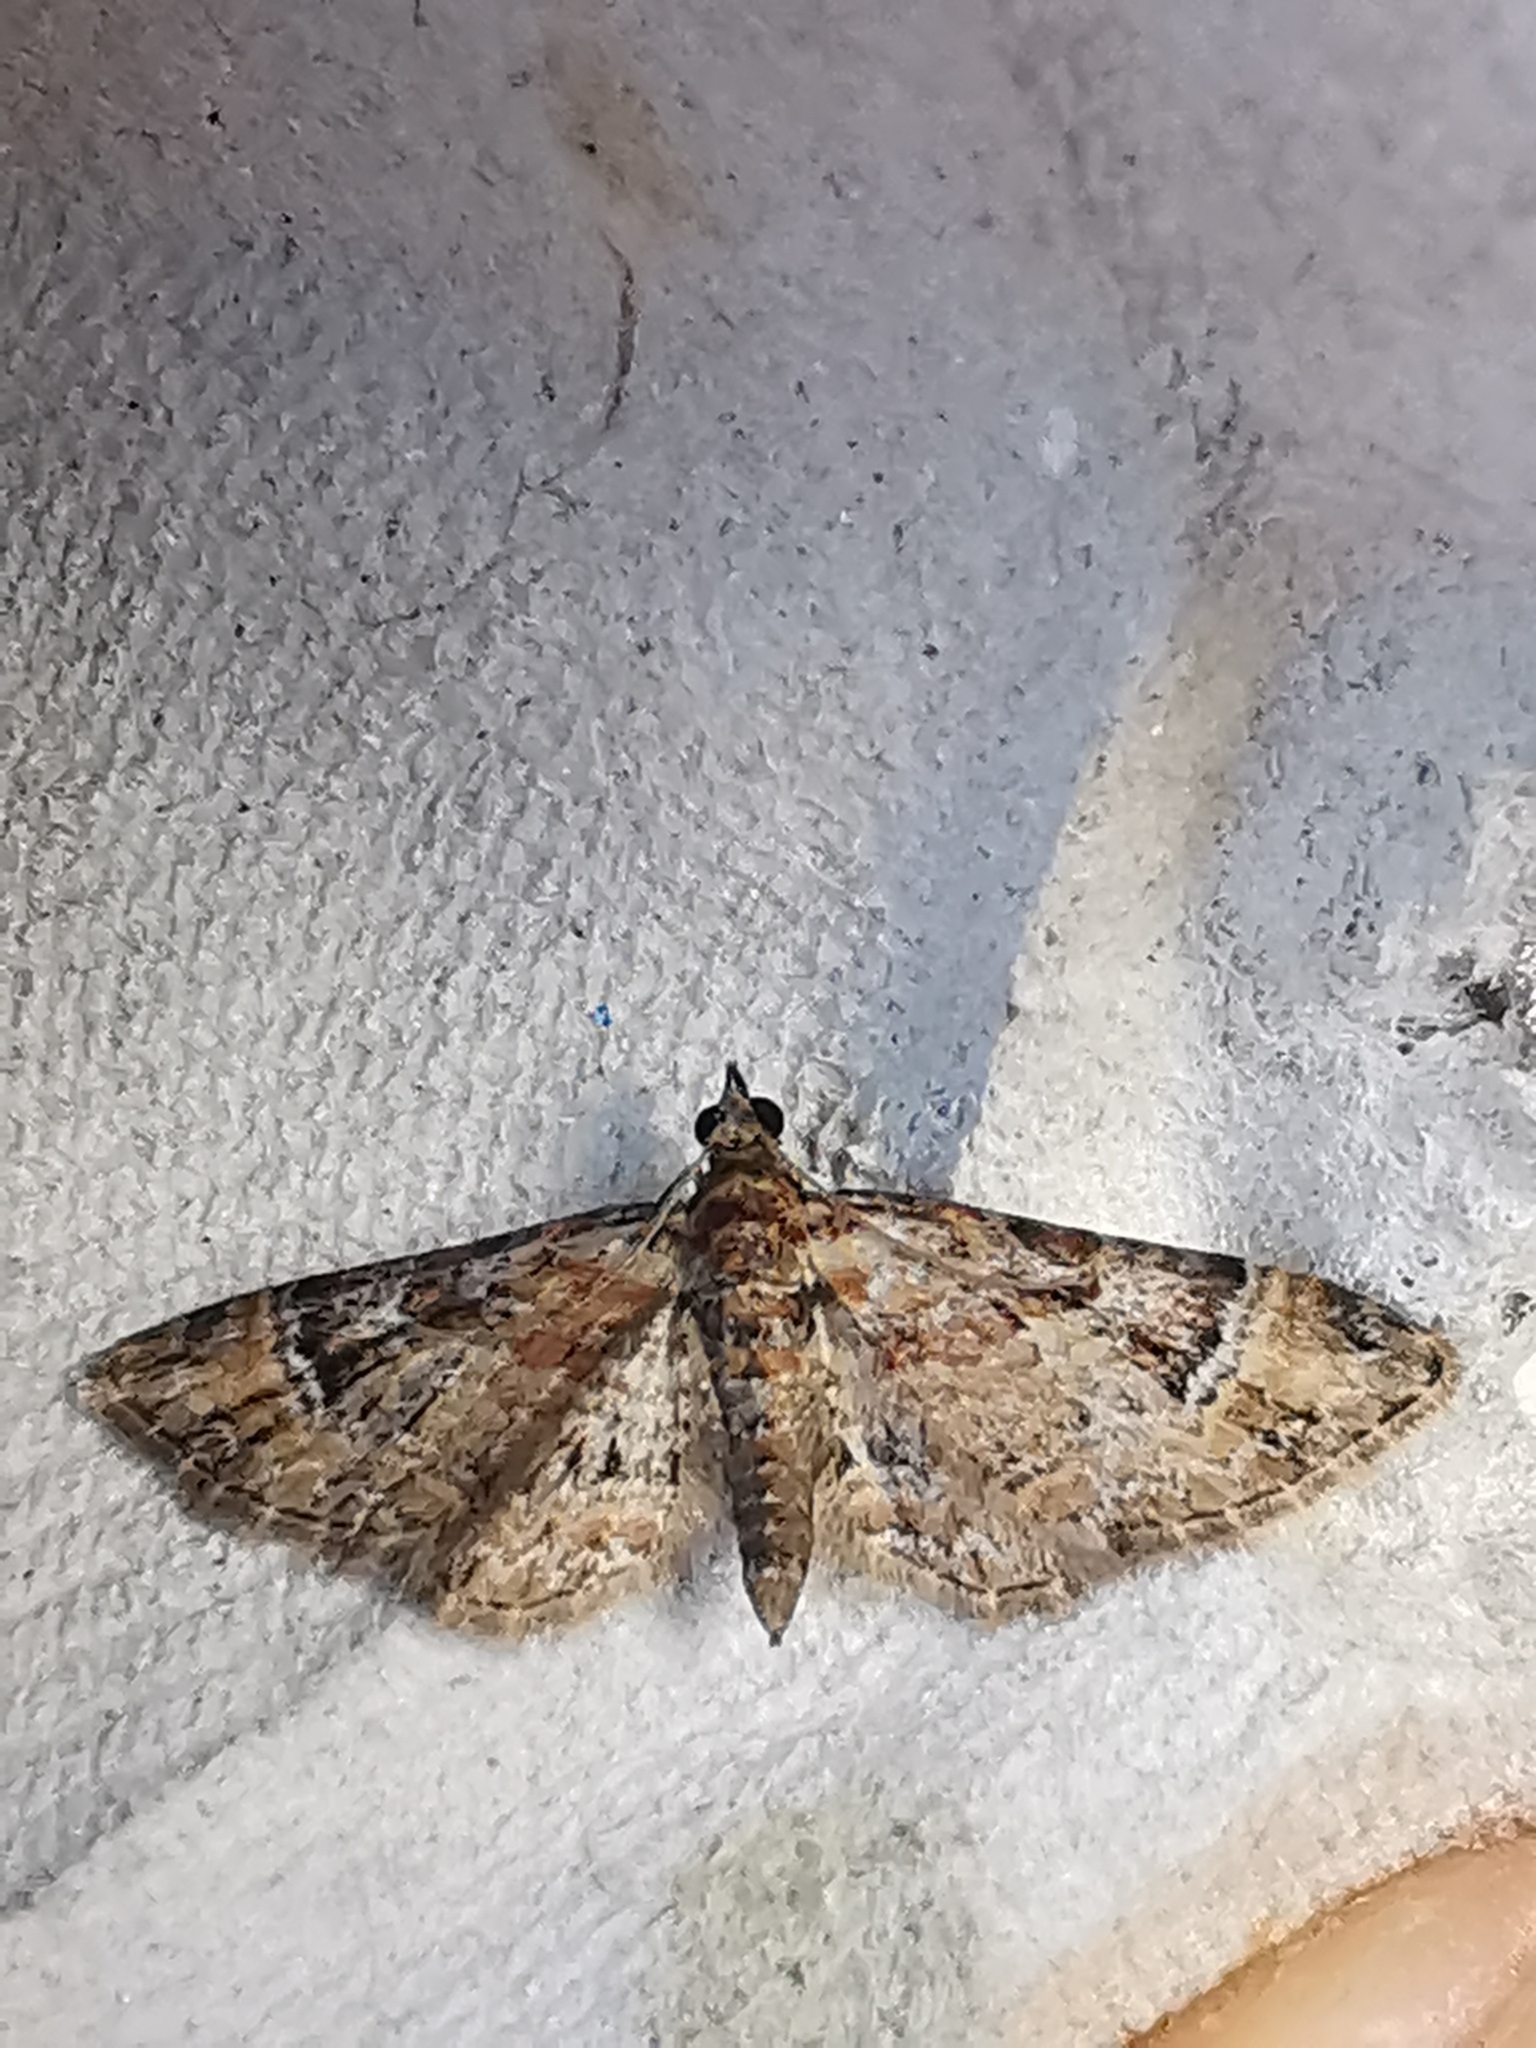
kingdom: Animalia
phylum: Arthropoda
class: Insecta
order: Lepidoptera
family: Geometridae
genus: Gymnoscelis
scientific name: Gymnoscelis rufifasciata
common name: Double-striped pug
